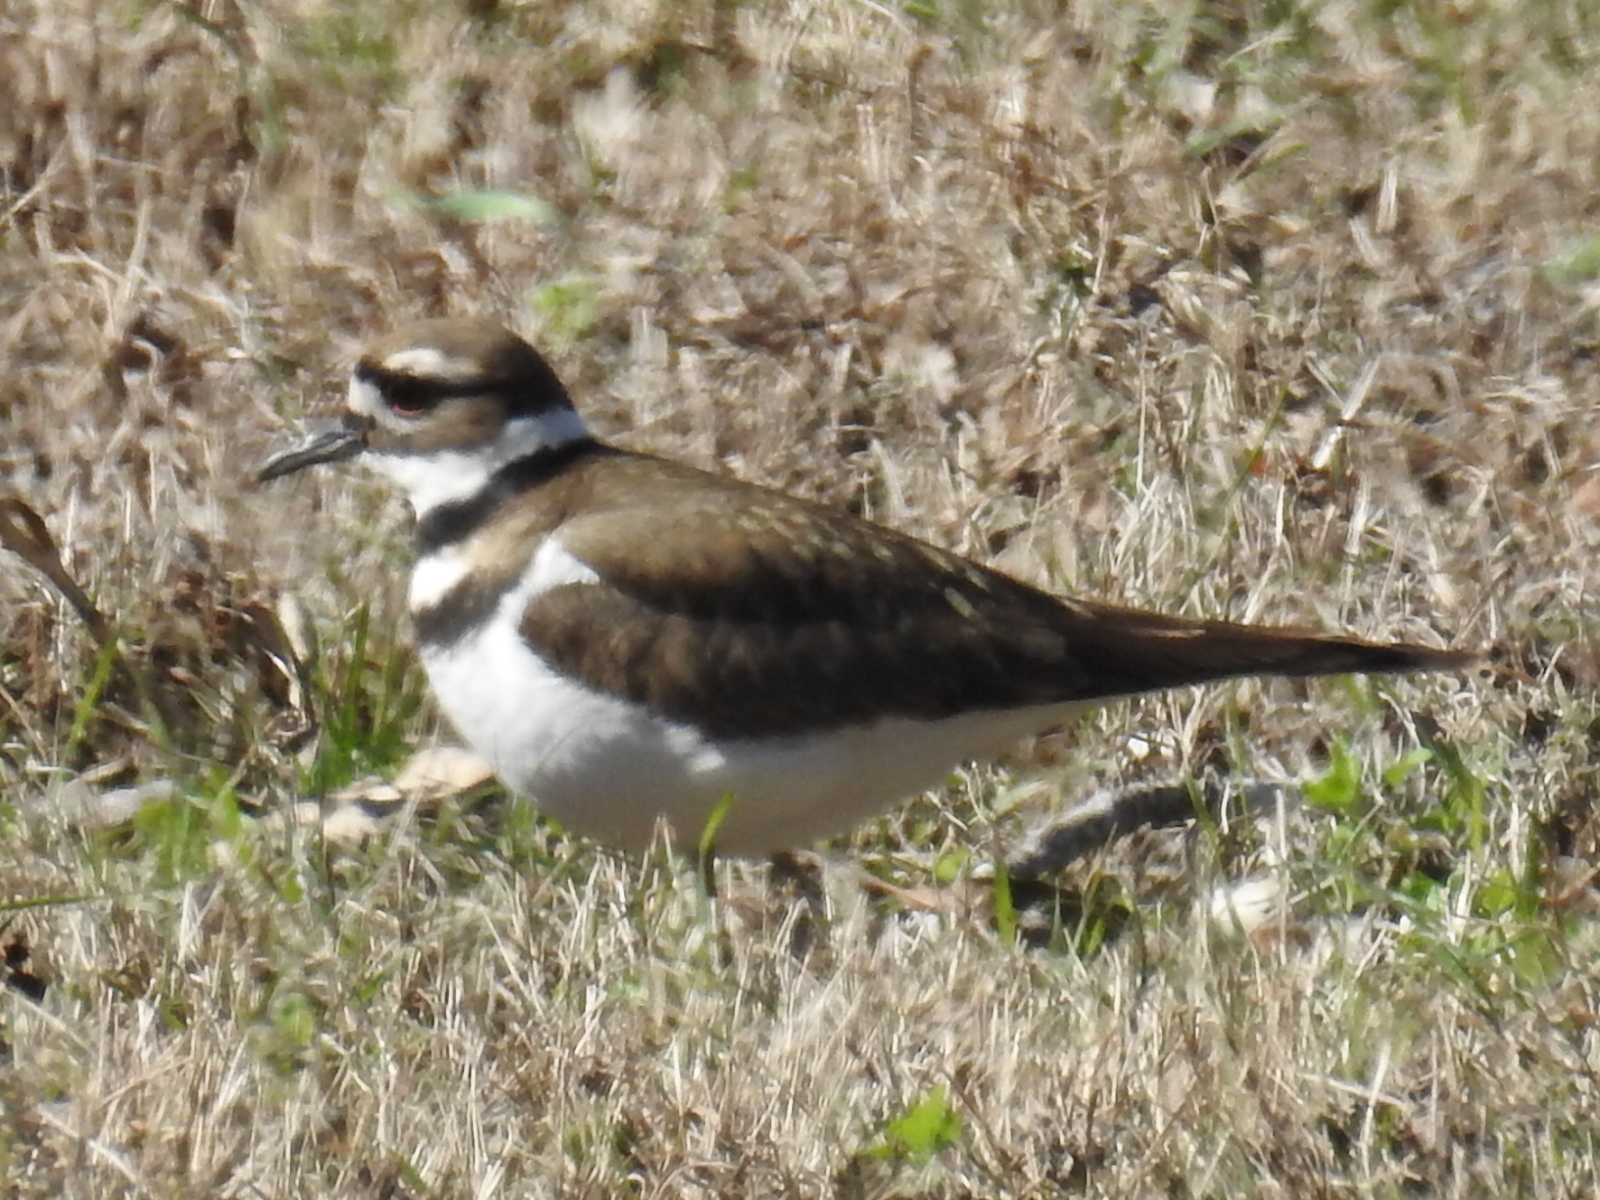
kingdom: Animalia
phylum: Chordata
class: Aves
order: Charadriiformes
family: Charadriidae
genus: Charadrius
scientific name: Charadrius vociferus
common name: Killdeer
